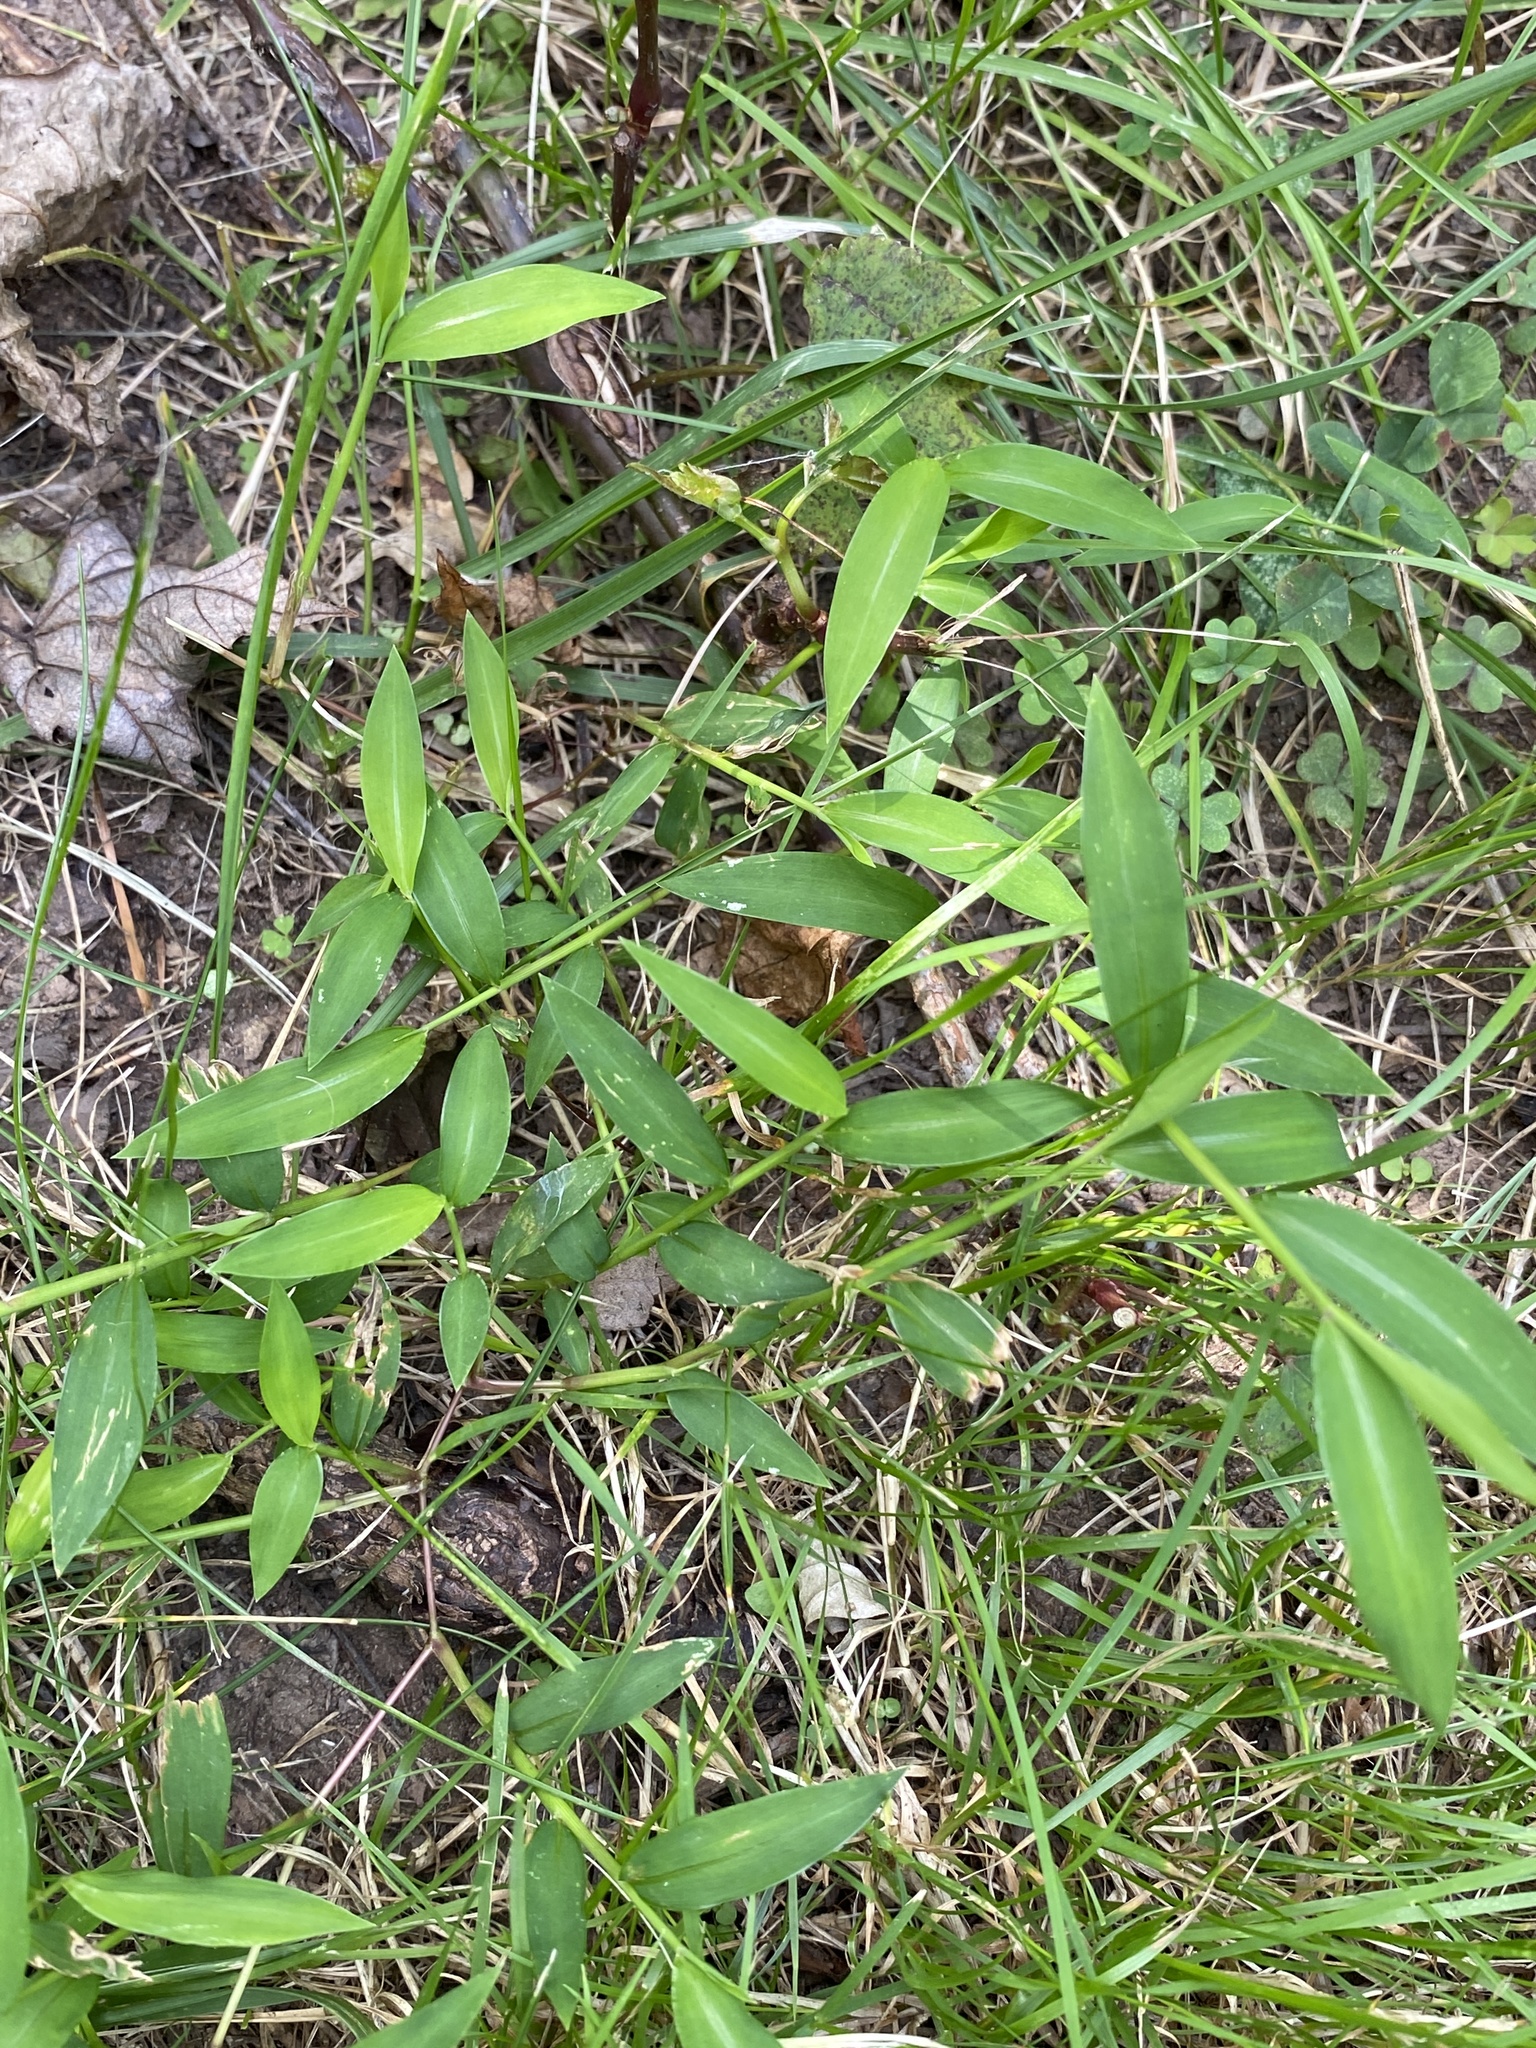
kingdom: Plantae
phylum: Tracheophyta
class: Liliopsida
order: Poales
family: Poaceae
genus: Microstegium
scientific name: Microstegium vimineum
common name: Japanese stiltgrass
